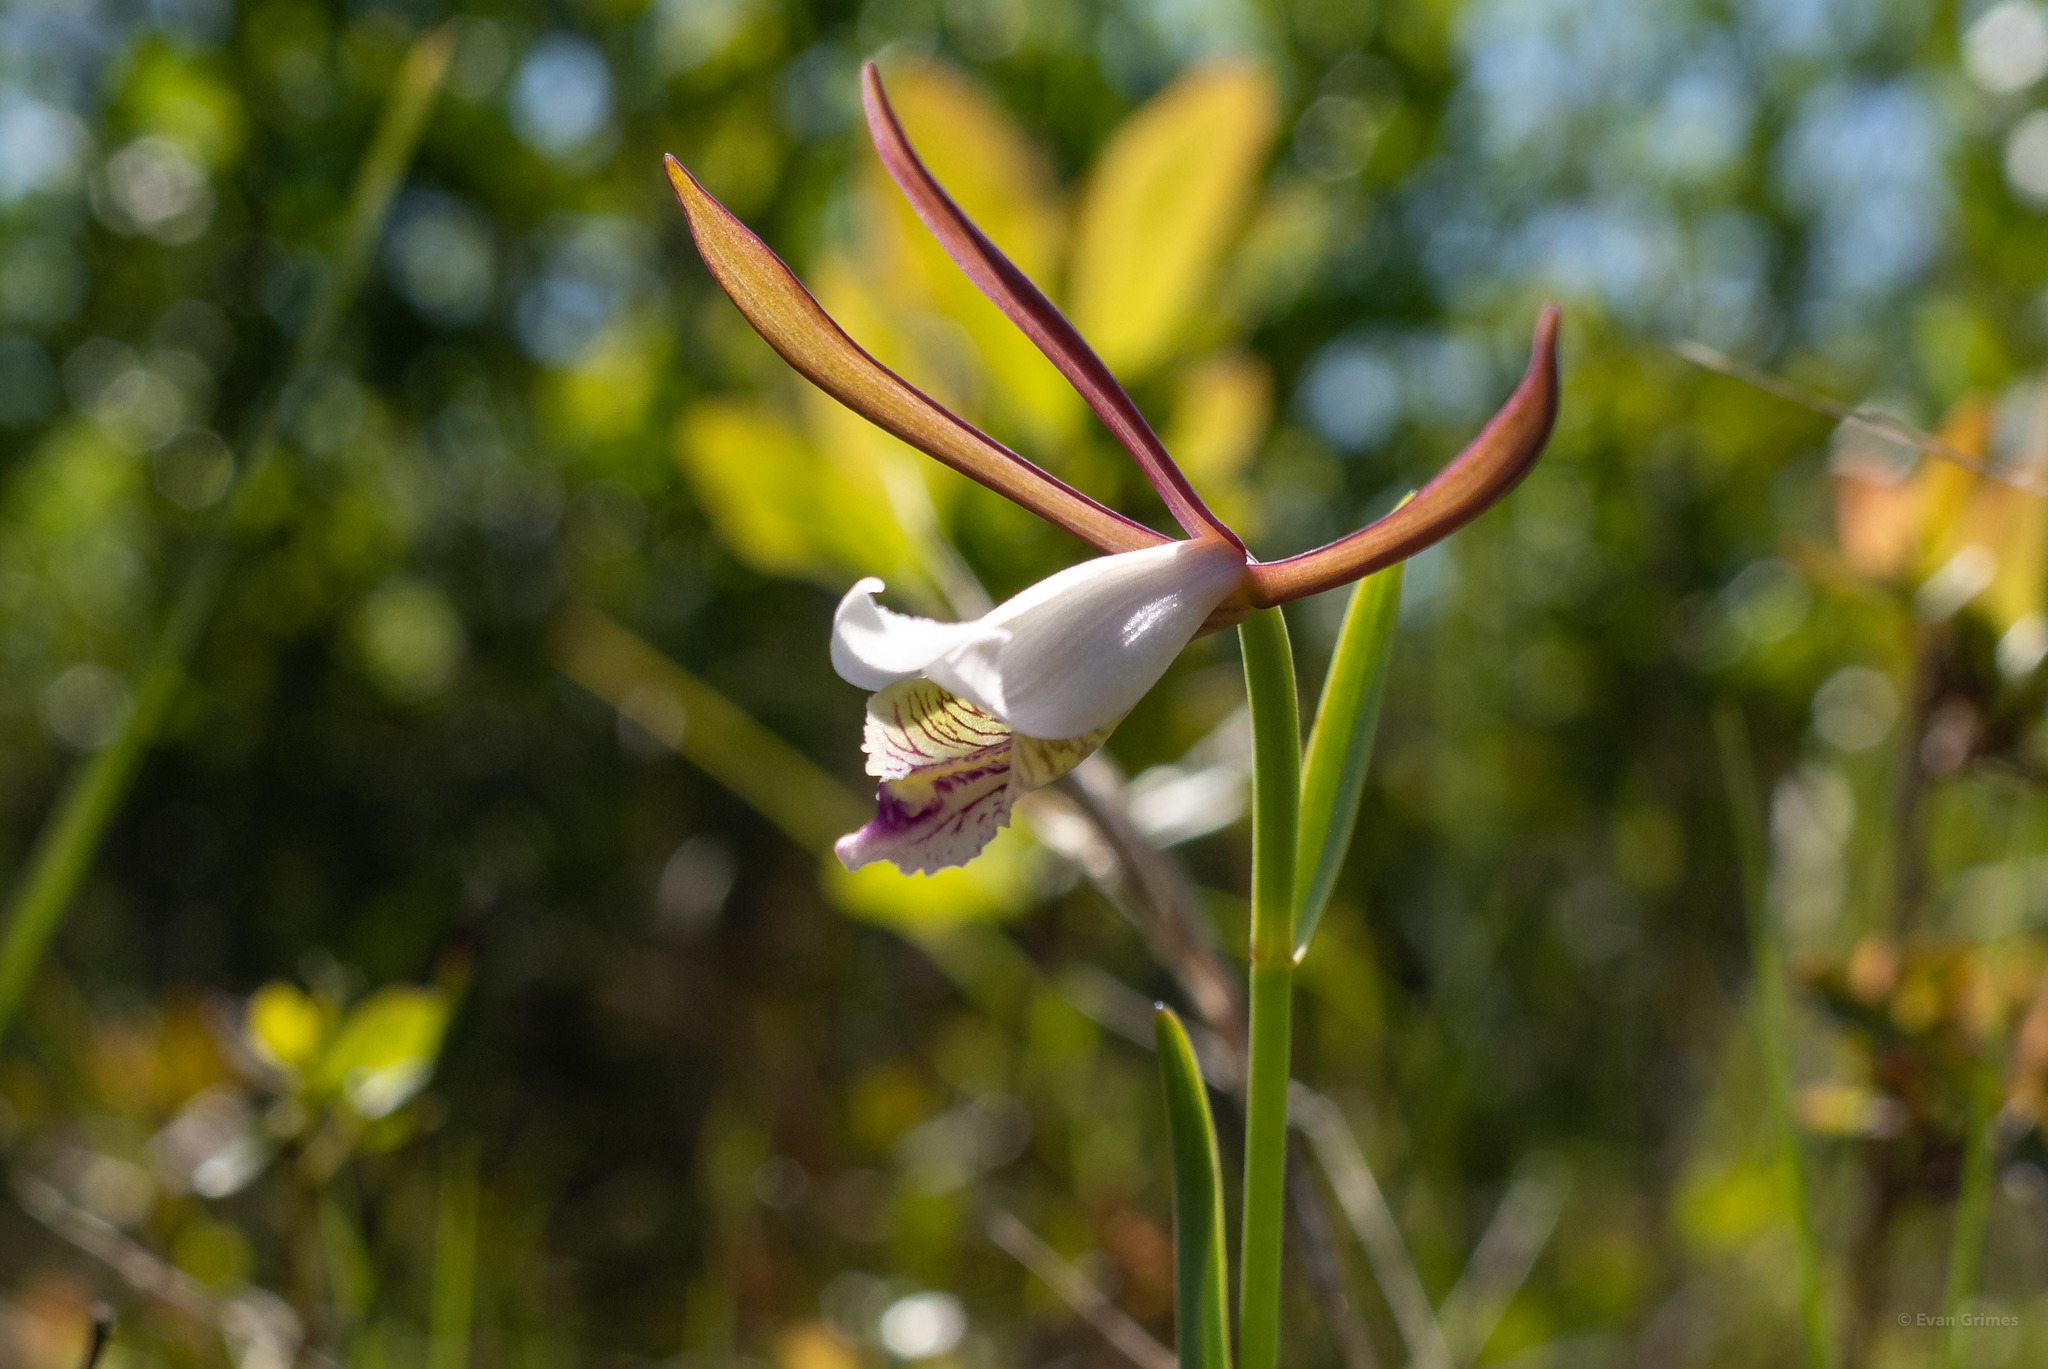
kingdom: Plantae
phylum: Tracheophyta
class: Liliopsida
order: Asparagales
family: Orchidaceae
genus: Cleistesiopsis
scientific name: Cleistesiopsis oricamporum
